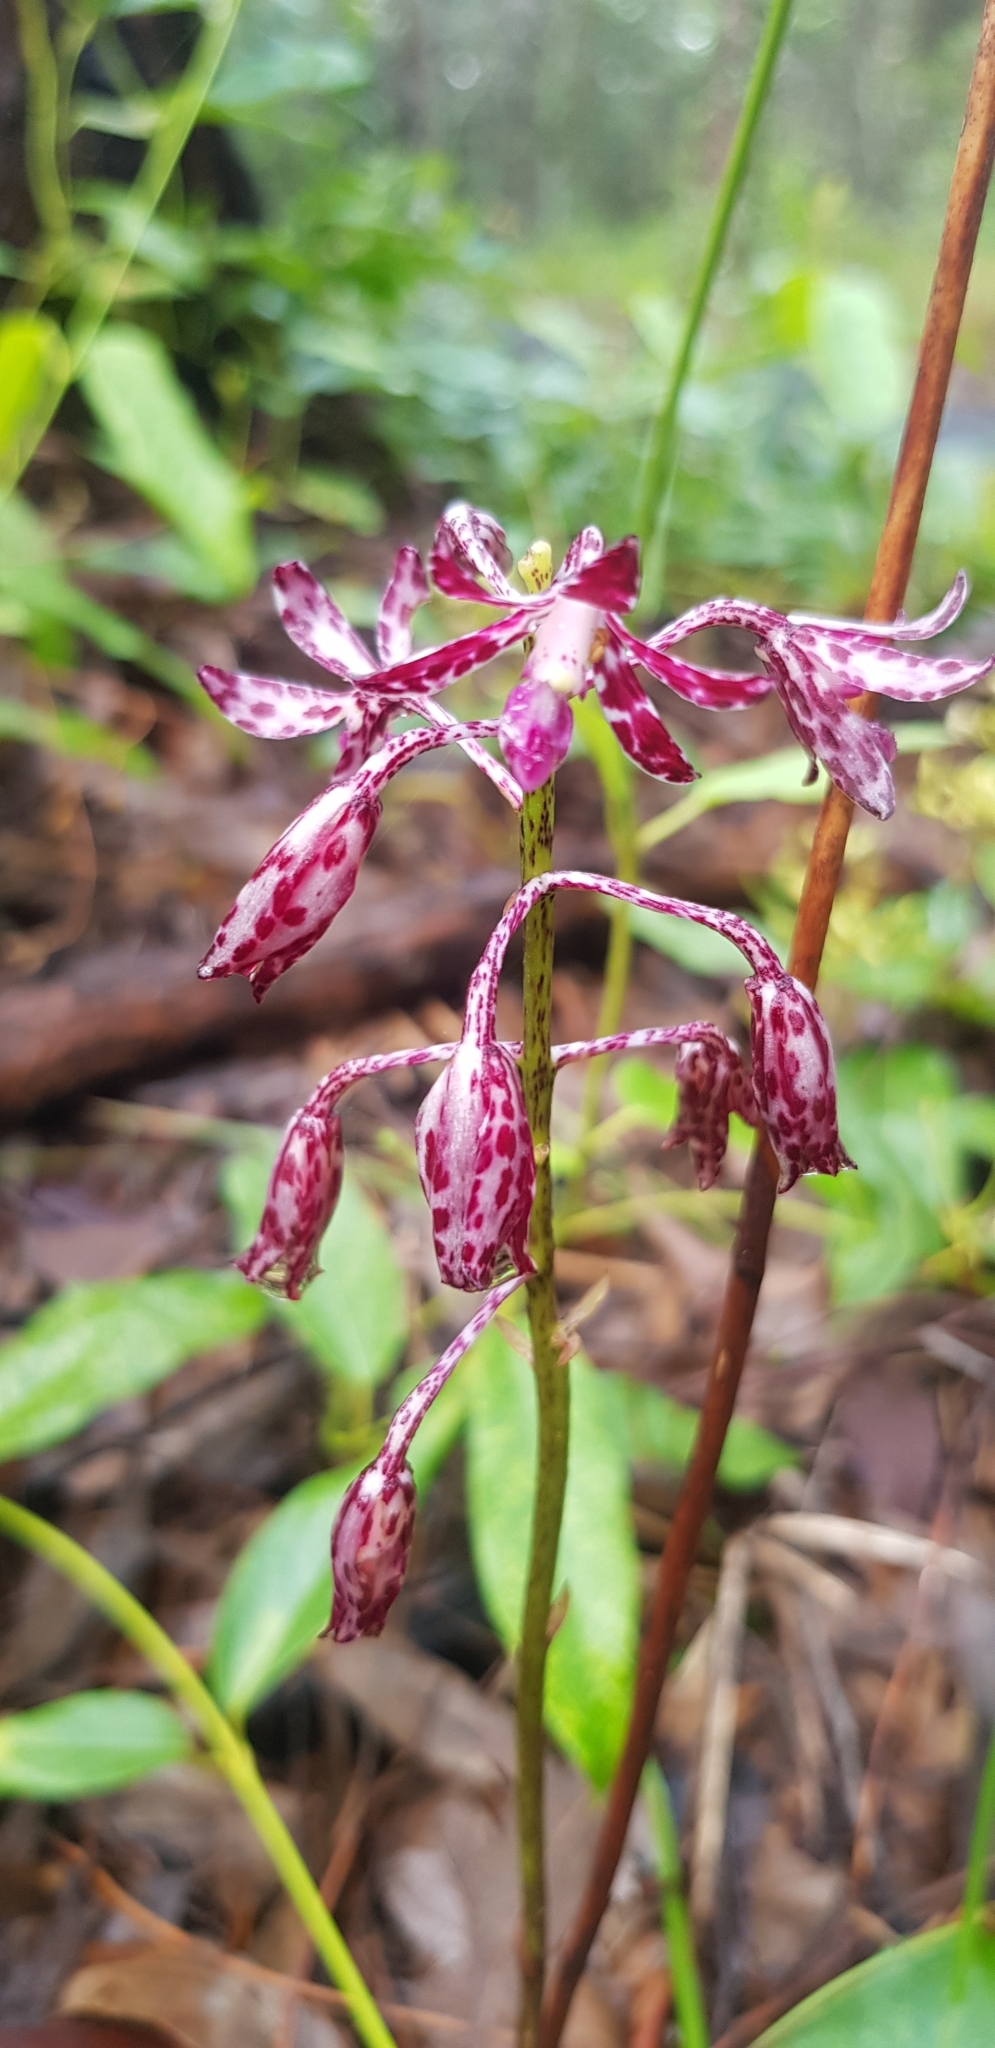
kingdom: Plantae
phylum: Tracheophyta
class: Liliopsida
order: Asparagales
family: Orchidaceae
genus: Dipodium
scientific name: Dipodium variegatum
